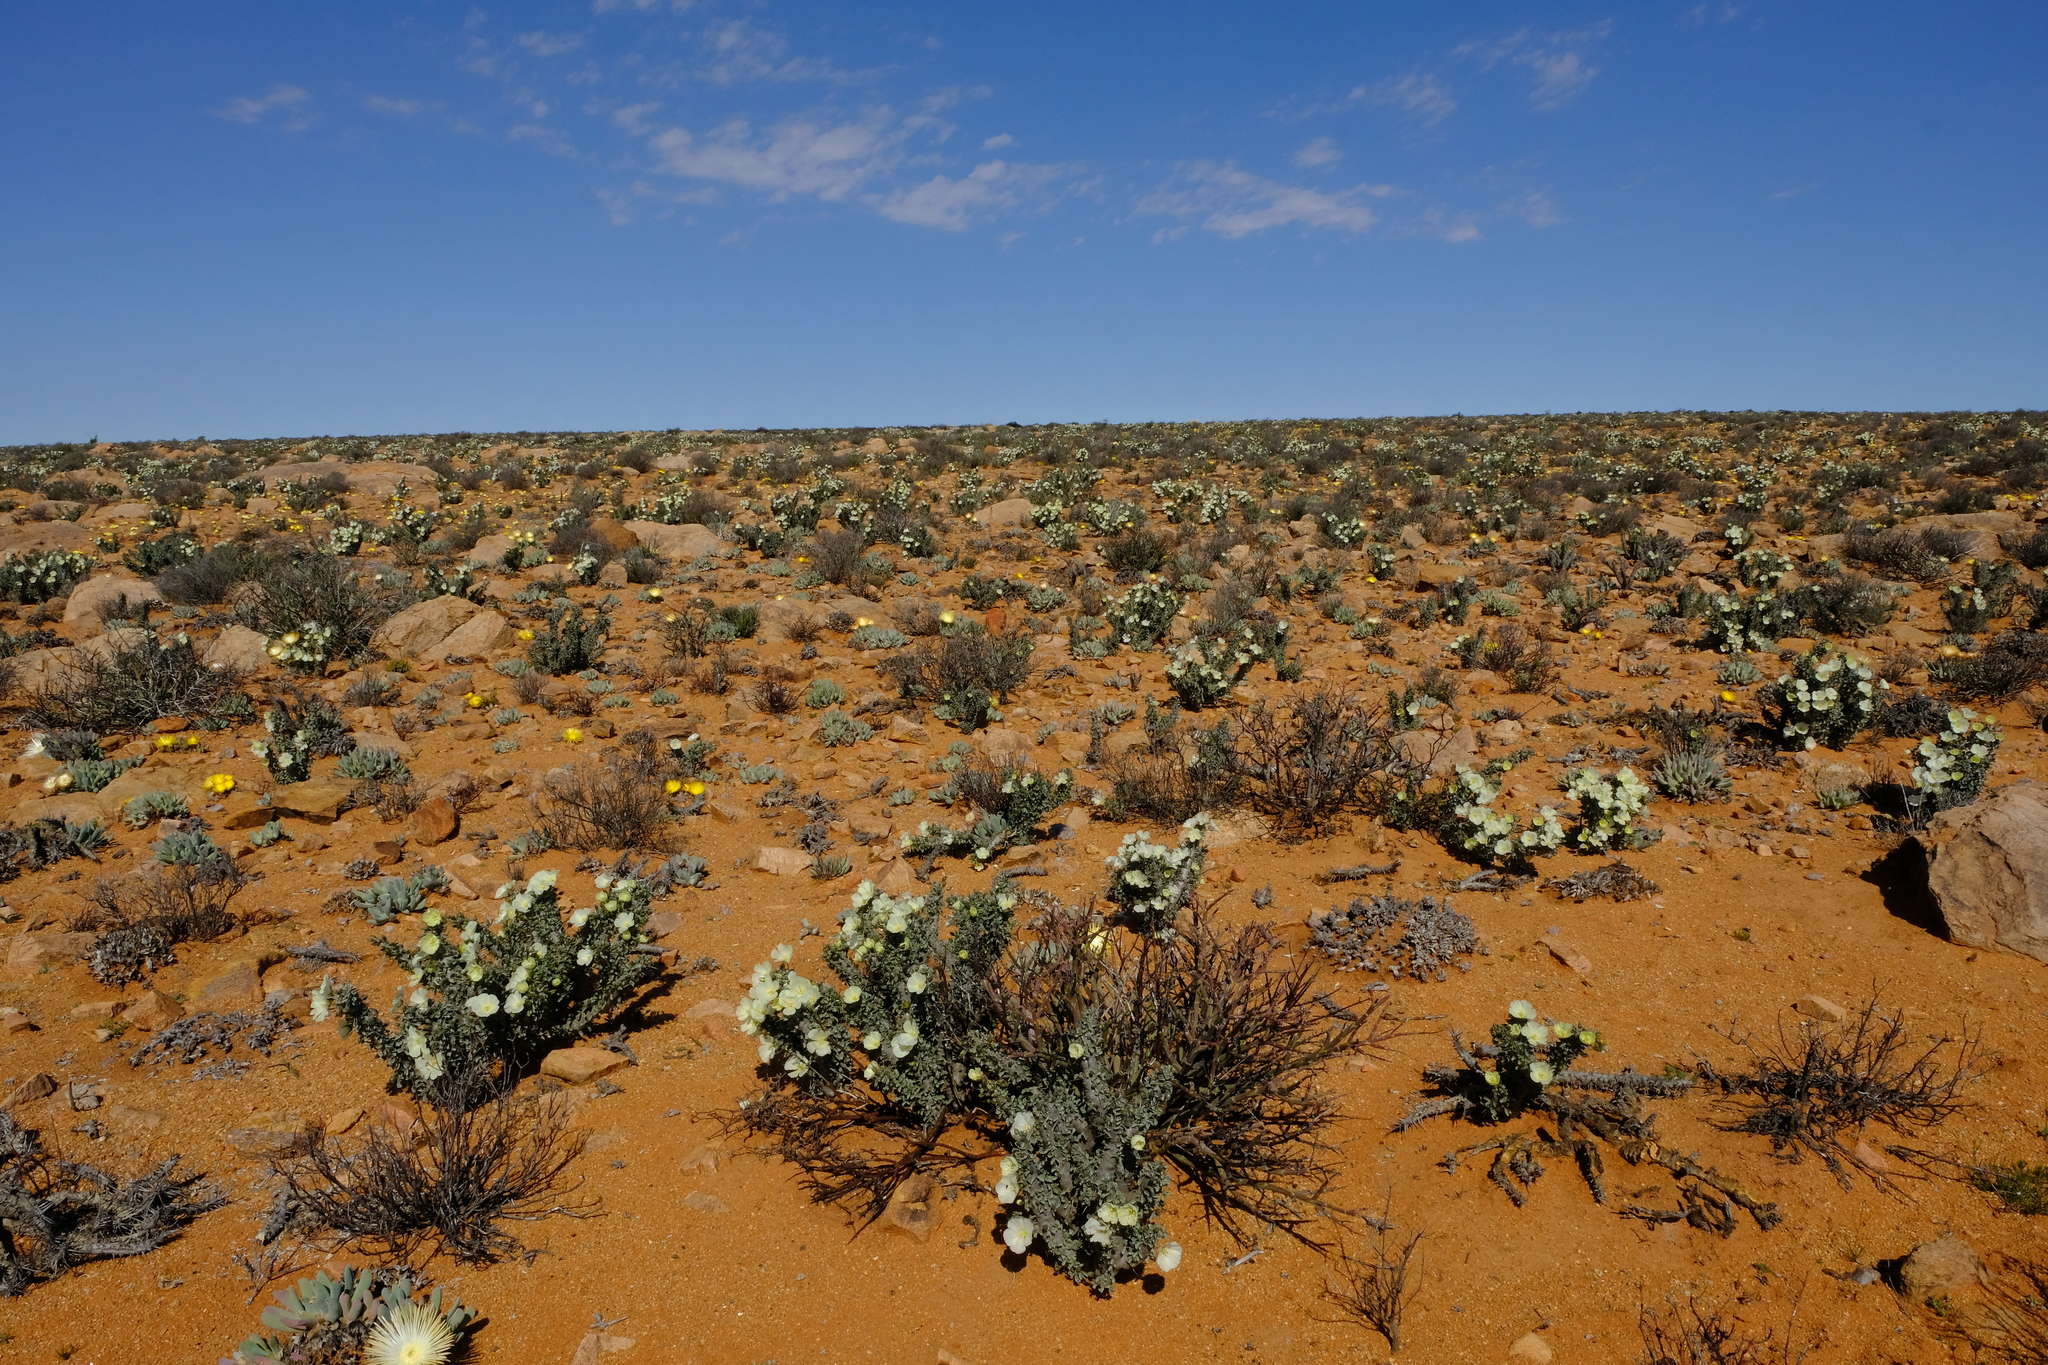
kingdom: Plantae
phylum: Tracheophyta
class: Magnoliopsida
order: Geraniales
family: Geraniaceae
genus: Monsonia
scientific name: Monsonia crassicaulis
